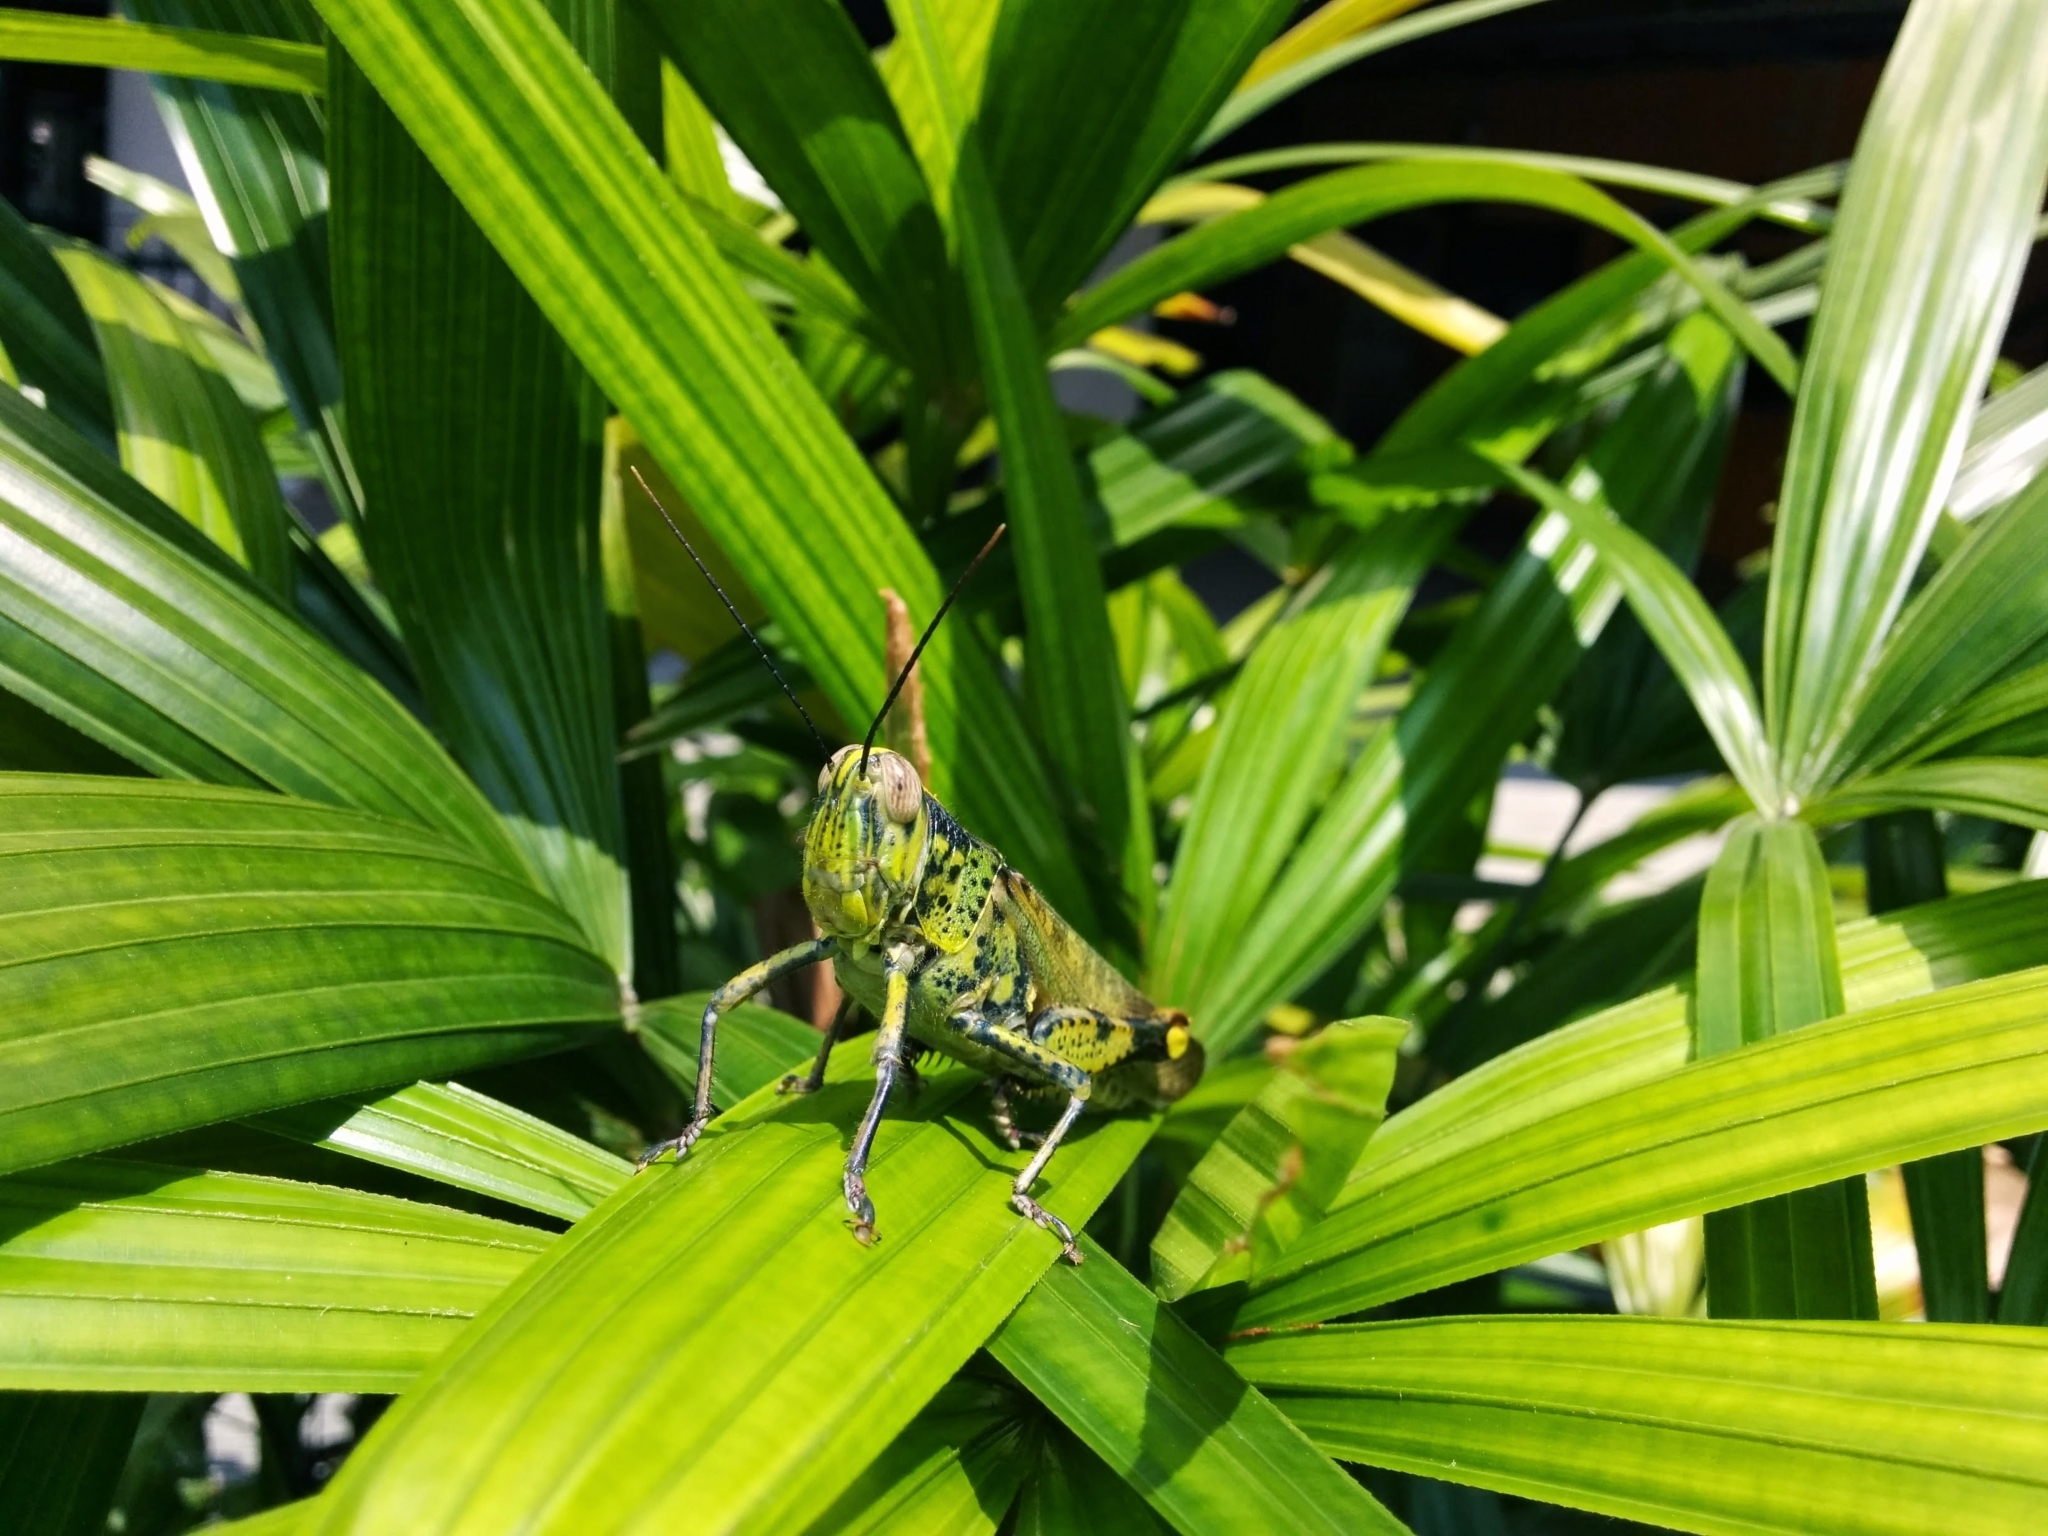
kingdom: Animalia
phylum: Arthropoda
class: Insecta
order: Orthoptera
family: Acrididae
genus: Valanga
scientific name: Valanga nigricornis
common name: Javanese bird grasshopper
